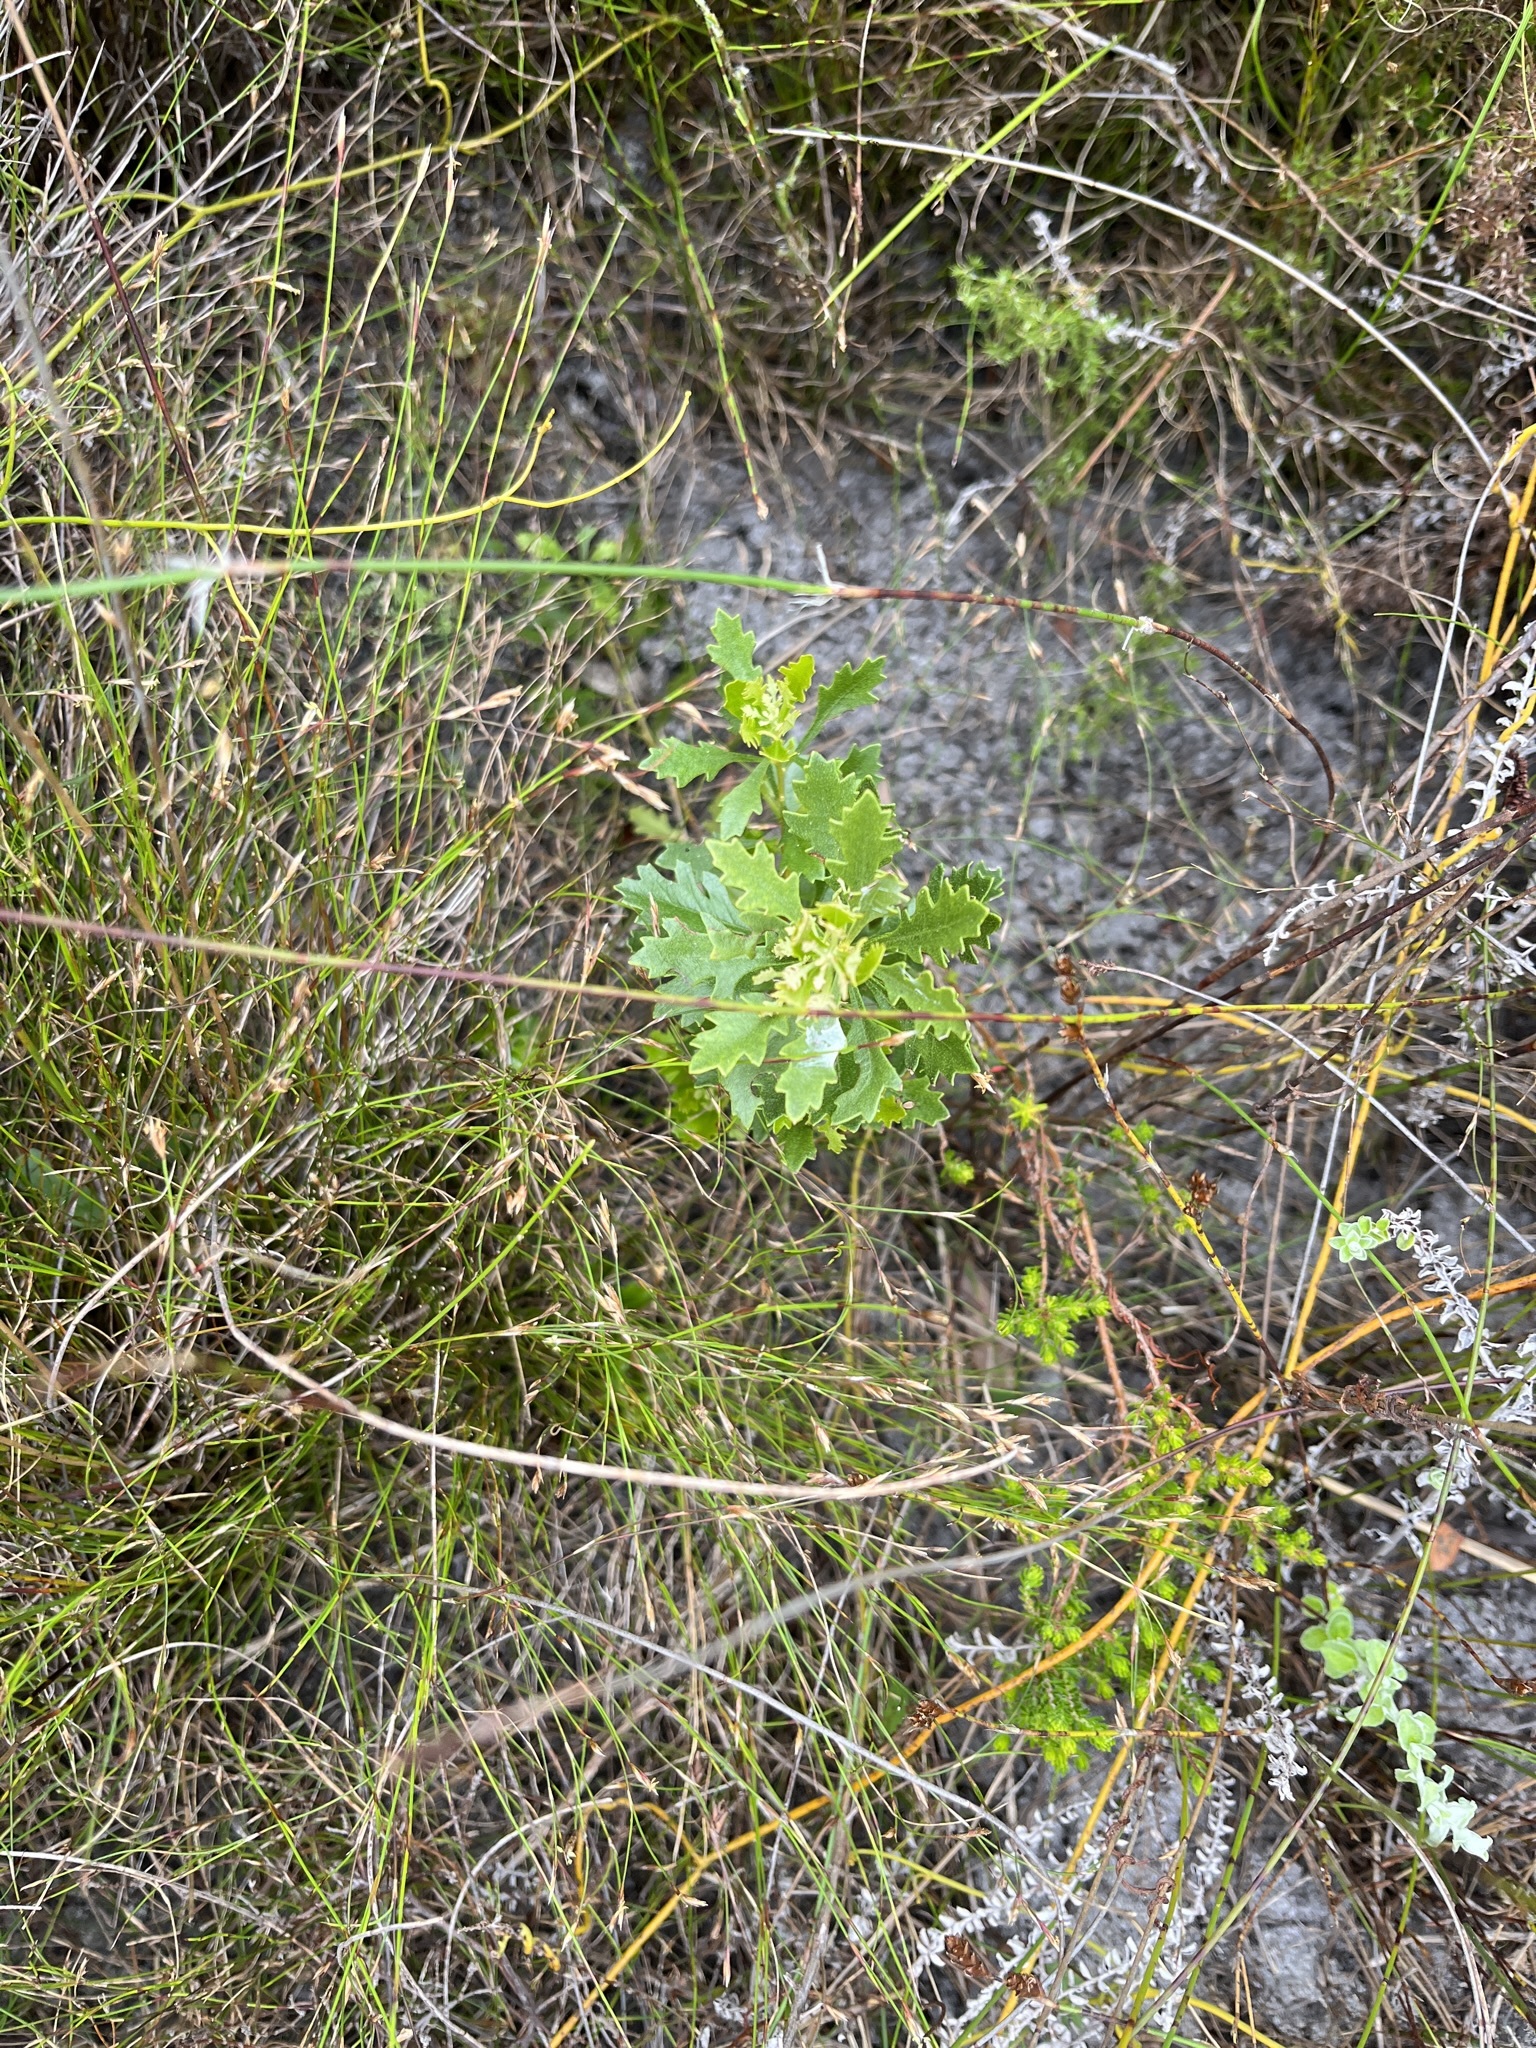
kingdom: Plantae
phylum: Tracheophyta
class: Magnoliopsida
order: Fagales
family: Myricaceae
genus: Morella
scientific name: Morella quercifolia
